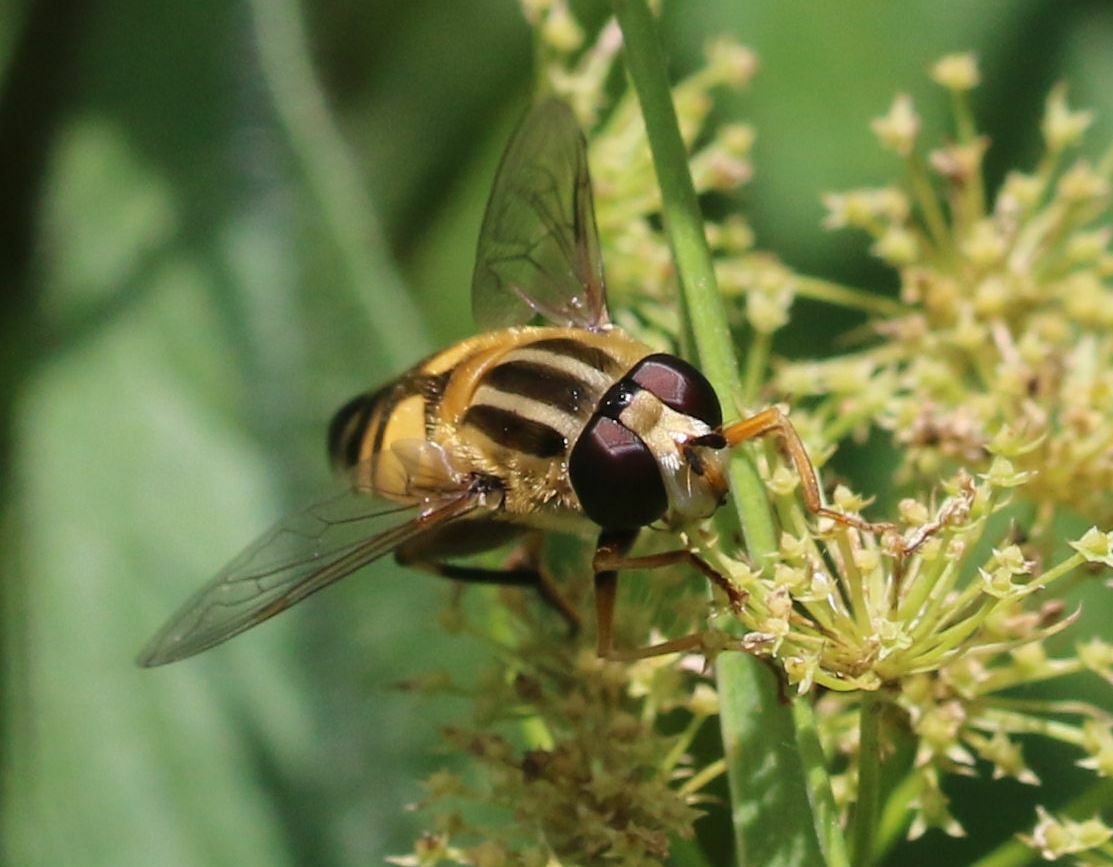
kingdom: Animalia
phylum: Arthropoda
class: Insecta
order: Diptera
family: Syrphidae
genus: Helophilus
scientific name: Helophilus trivittatus
